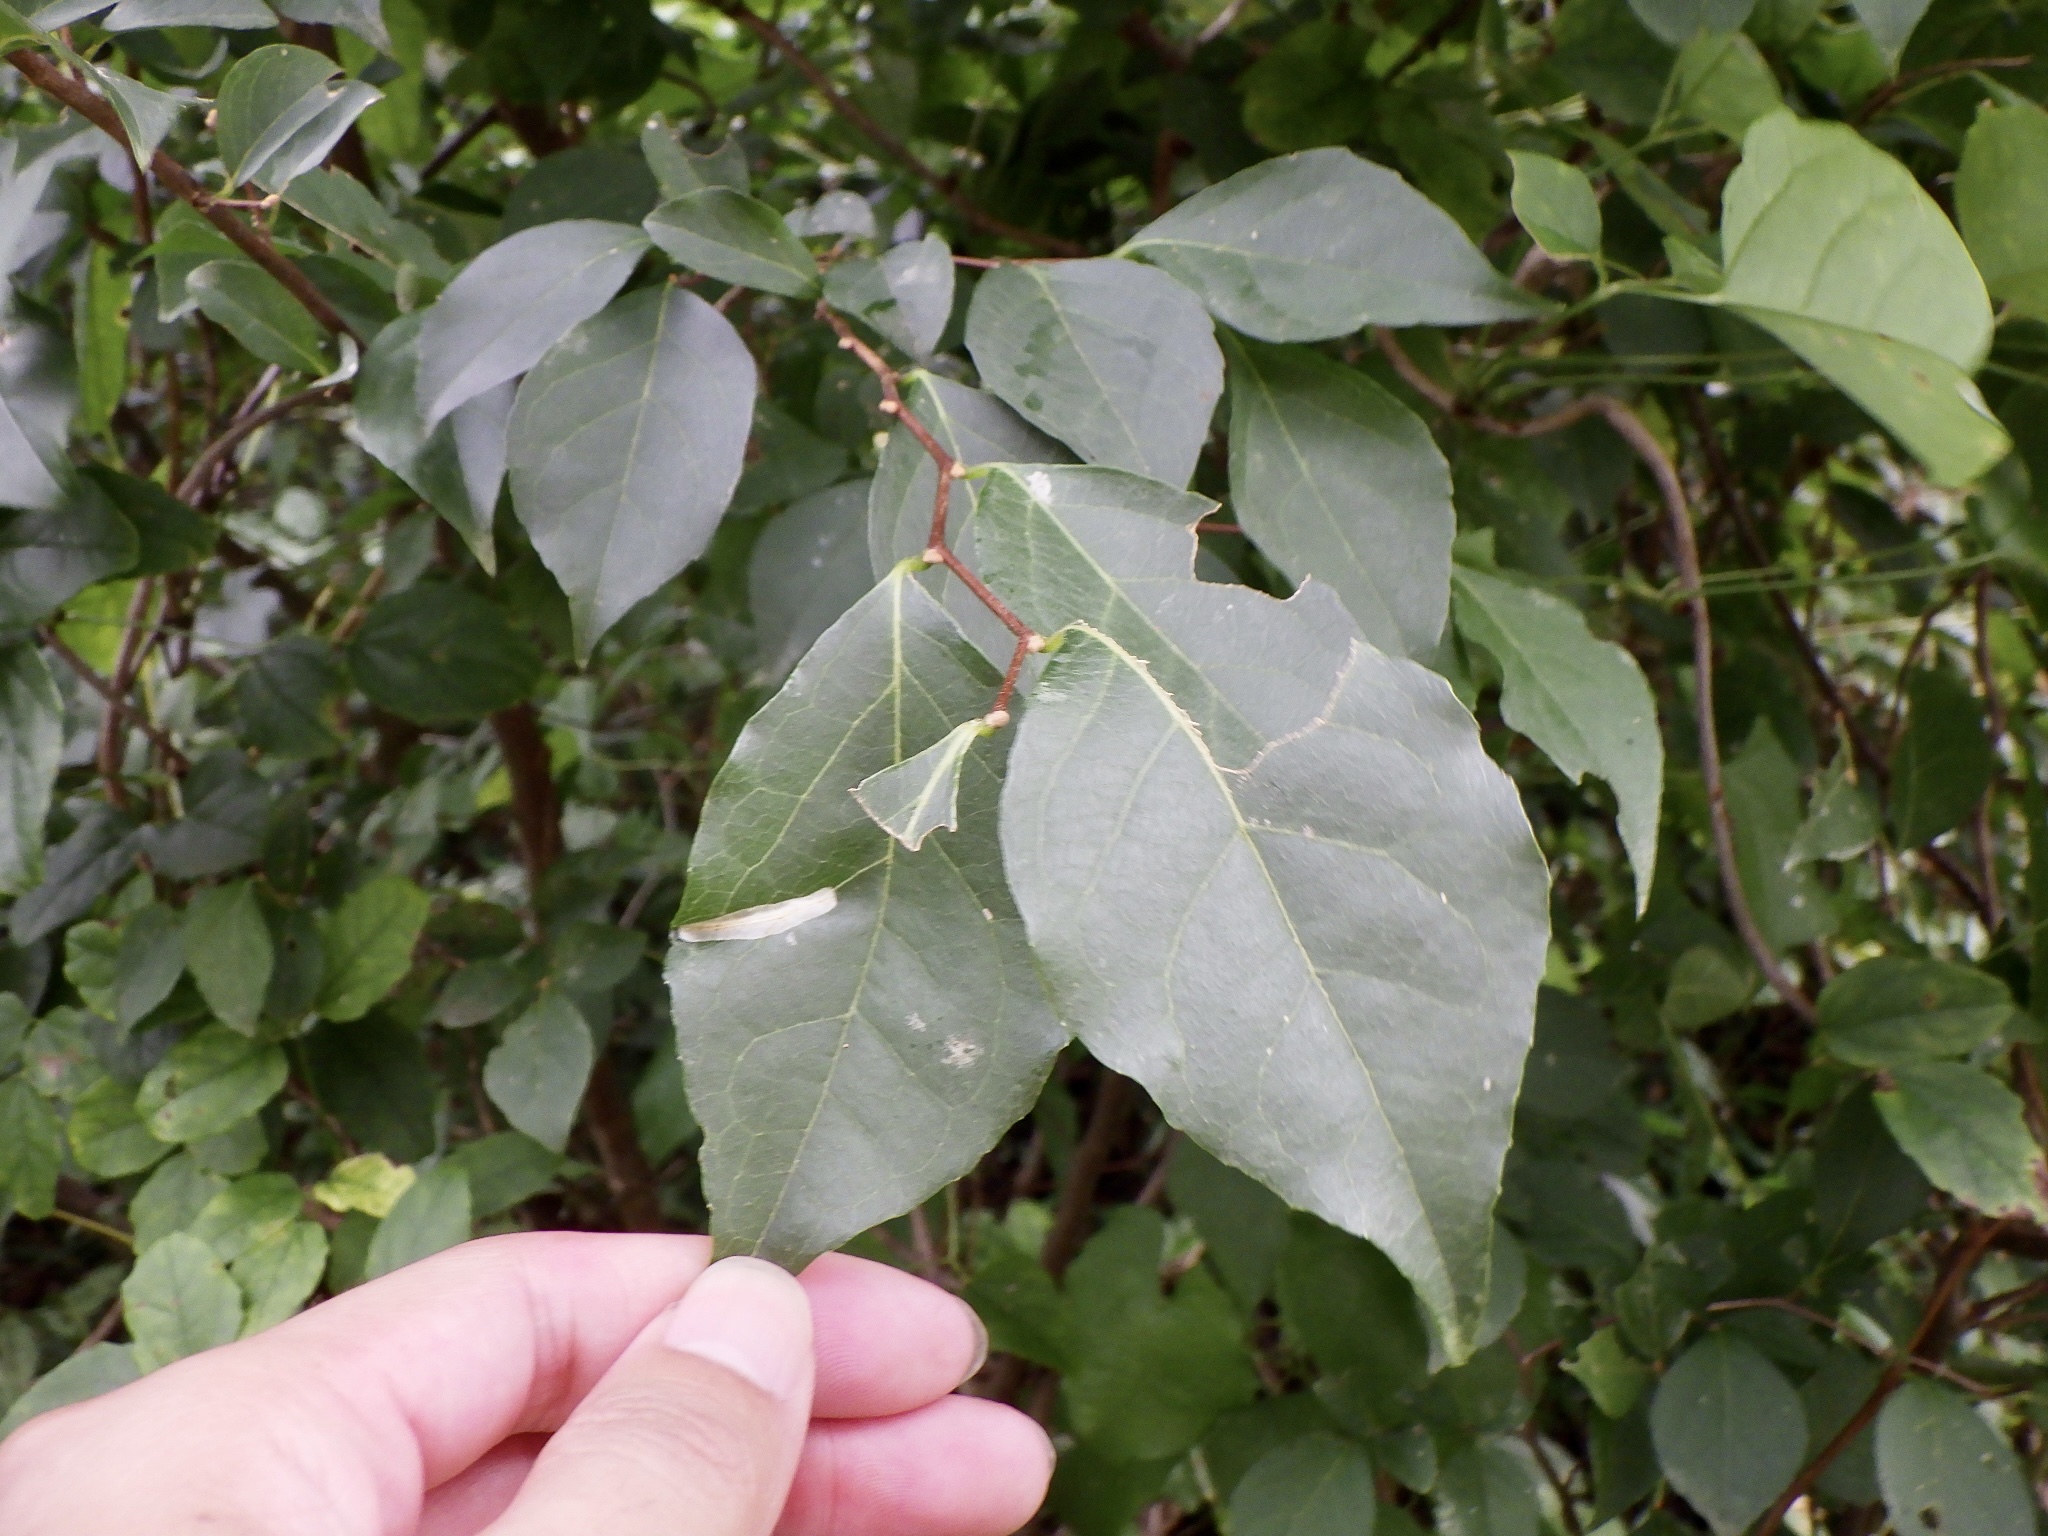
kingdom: Plantae
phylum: Tracheophyta
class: Magnoliopsida
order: Ericales
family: Styracaceae
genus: Styrax
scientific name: Styrax japonicus
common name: Japanese snowbell
